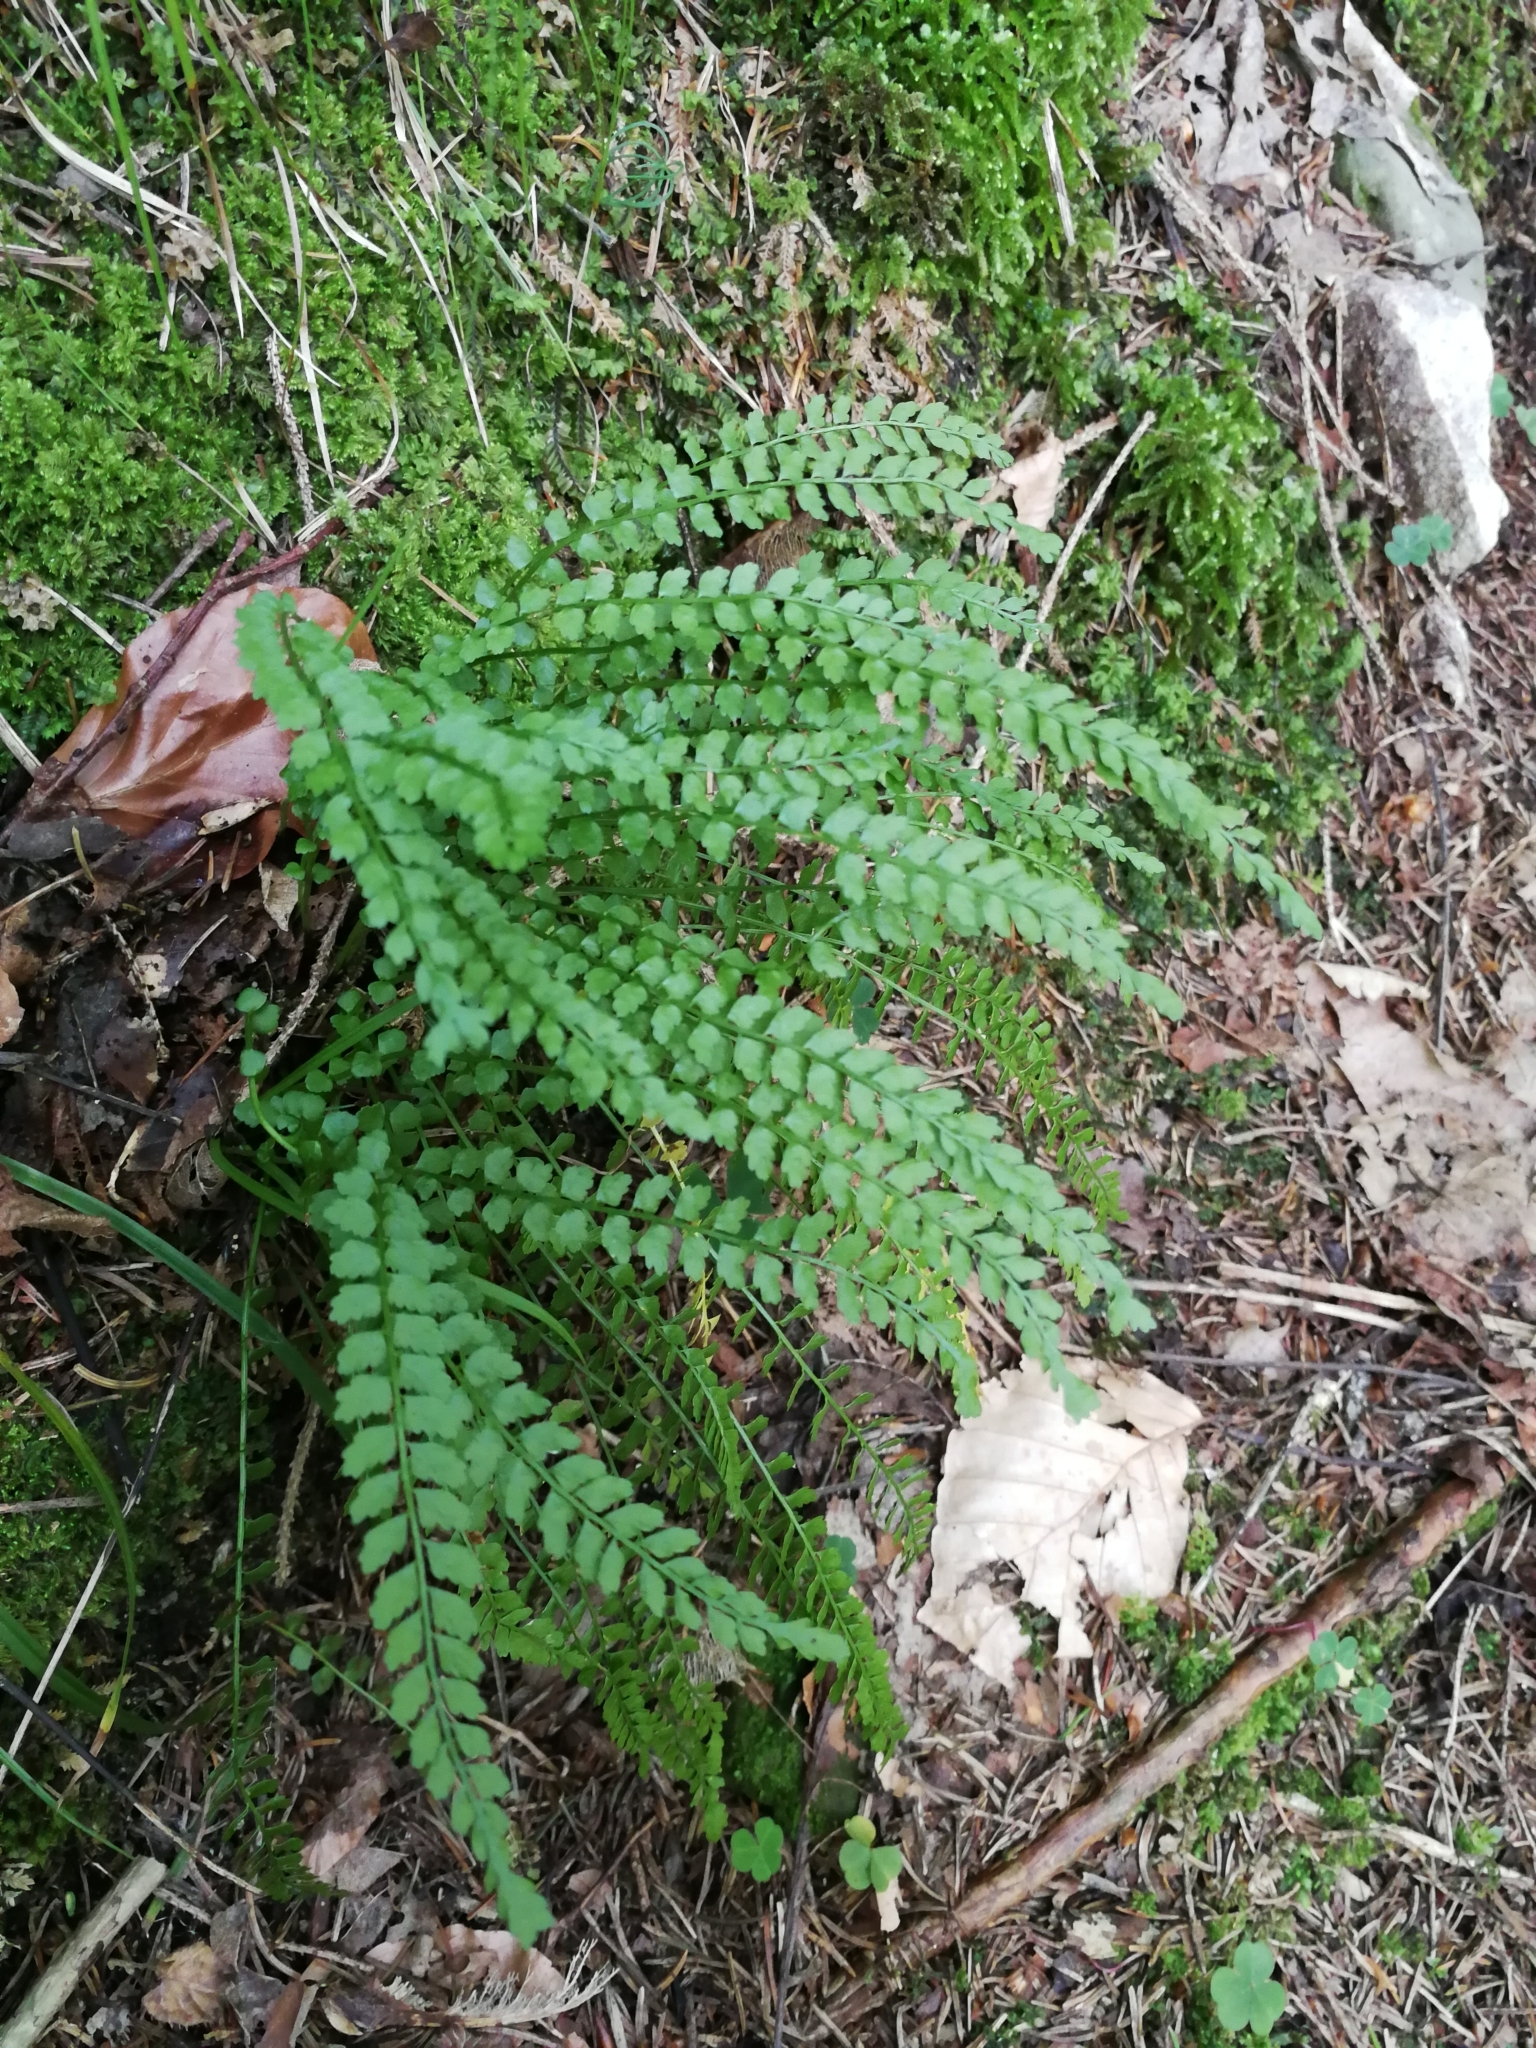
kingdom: Plantae
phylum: Tracheophyta
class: Polypodiopsida
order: Polypodiales
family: Aspleniaceae
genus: Asplenium
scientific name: Asplenium viride
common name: Green spleenwort
